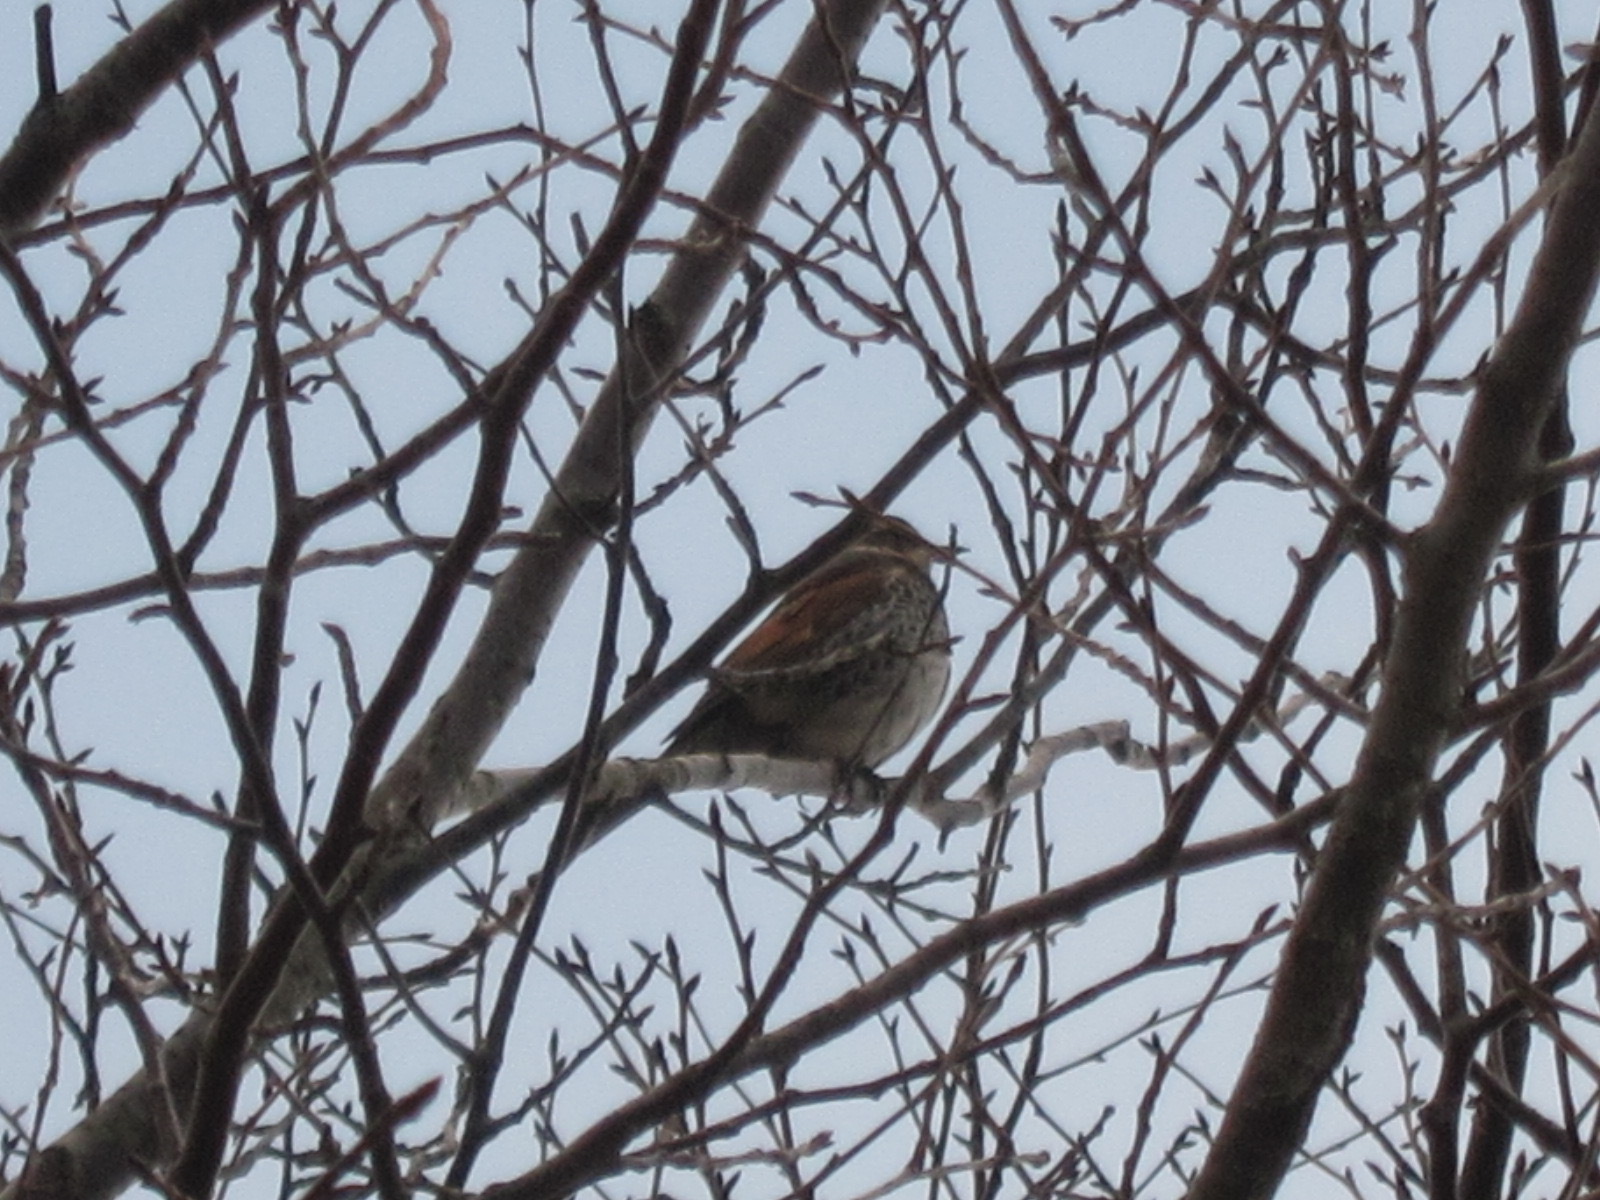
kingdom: Animalia
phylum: Chordata
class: Aves
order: Passeriformes
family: Turdidae
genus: Turdus
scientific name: Turdus eunomus
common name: Dusky thrush
